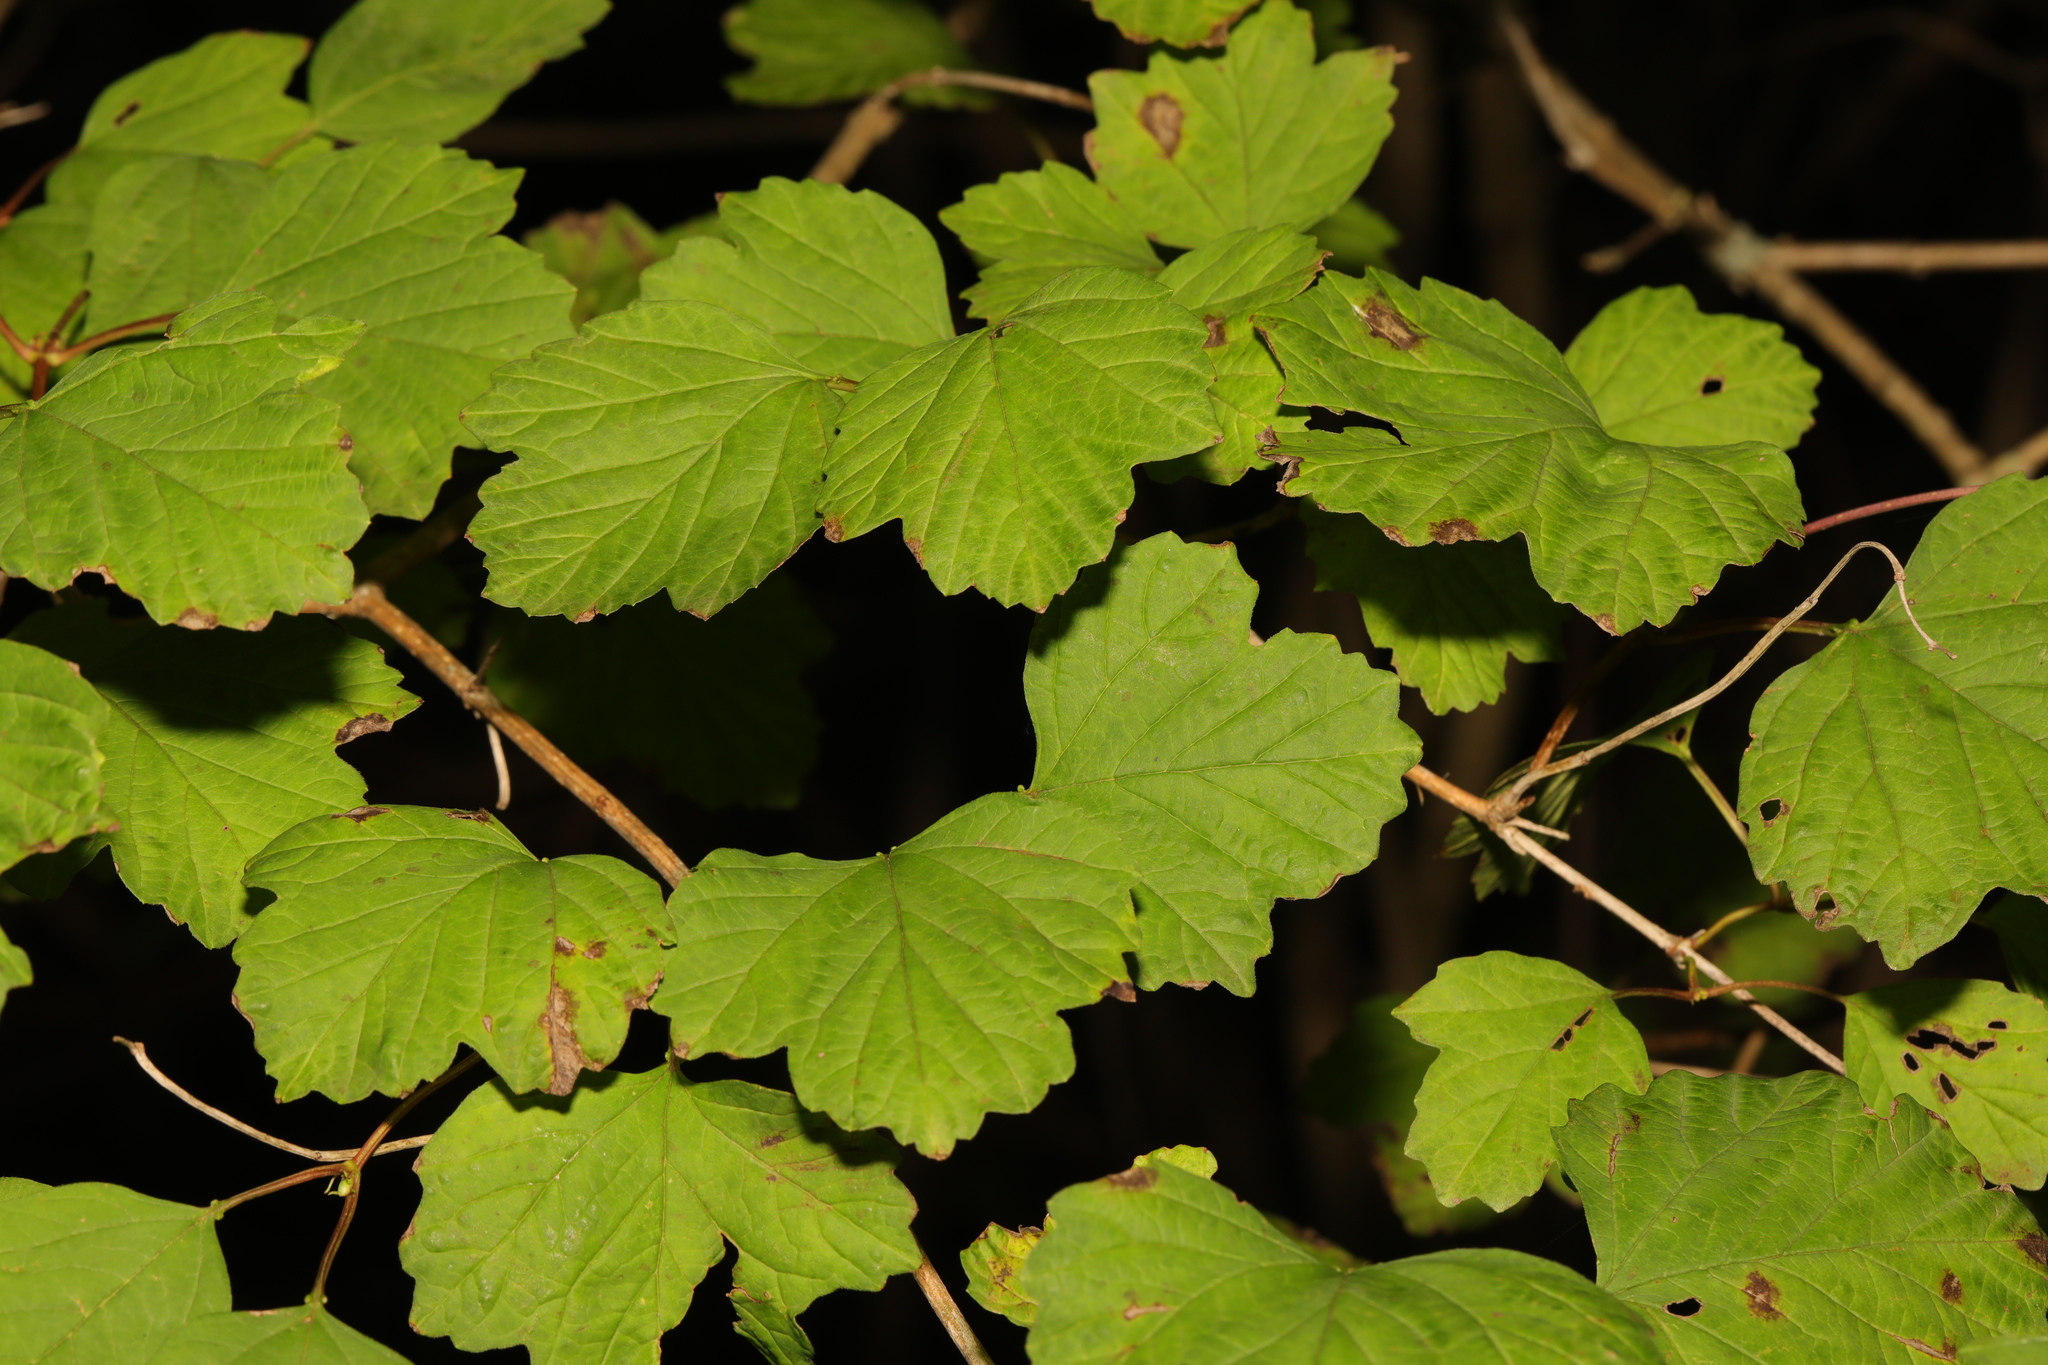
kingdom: Plantae
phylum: Tracheophyta
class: Magnoliopsida
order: Dipsacales
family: Viburnaceae
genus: Viburnum
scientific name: Viburnum opulus
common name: Guelder-rose
